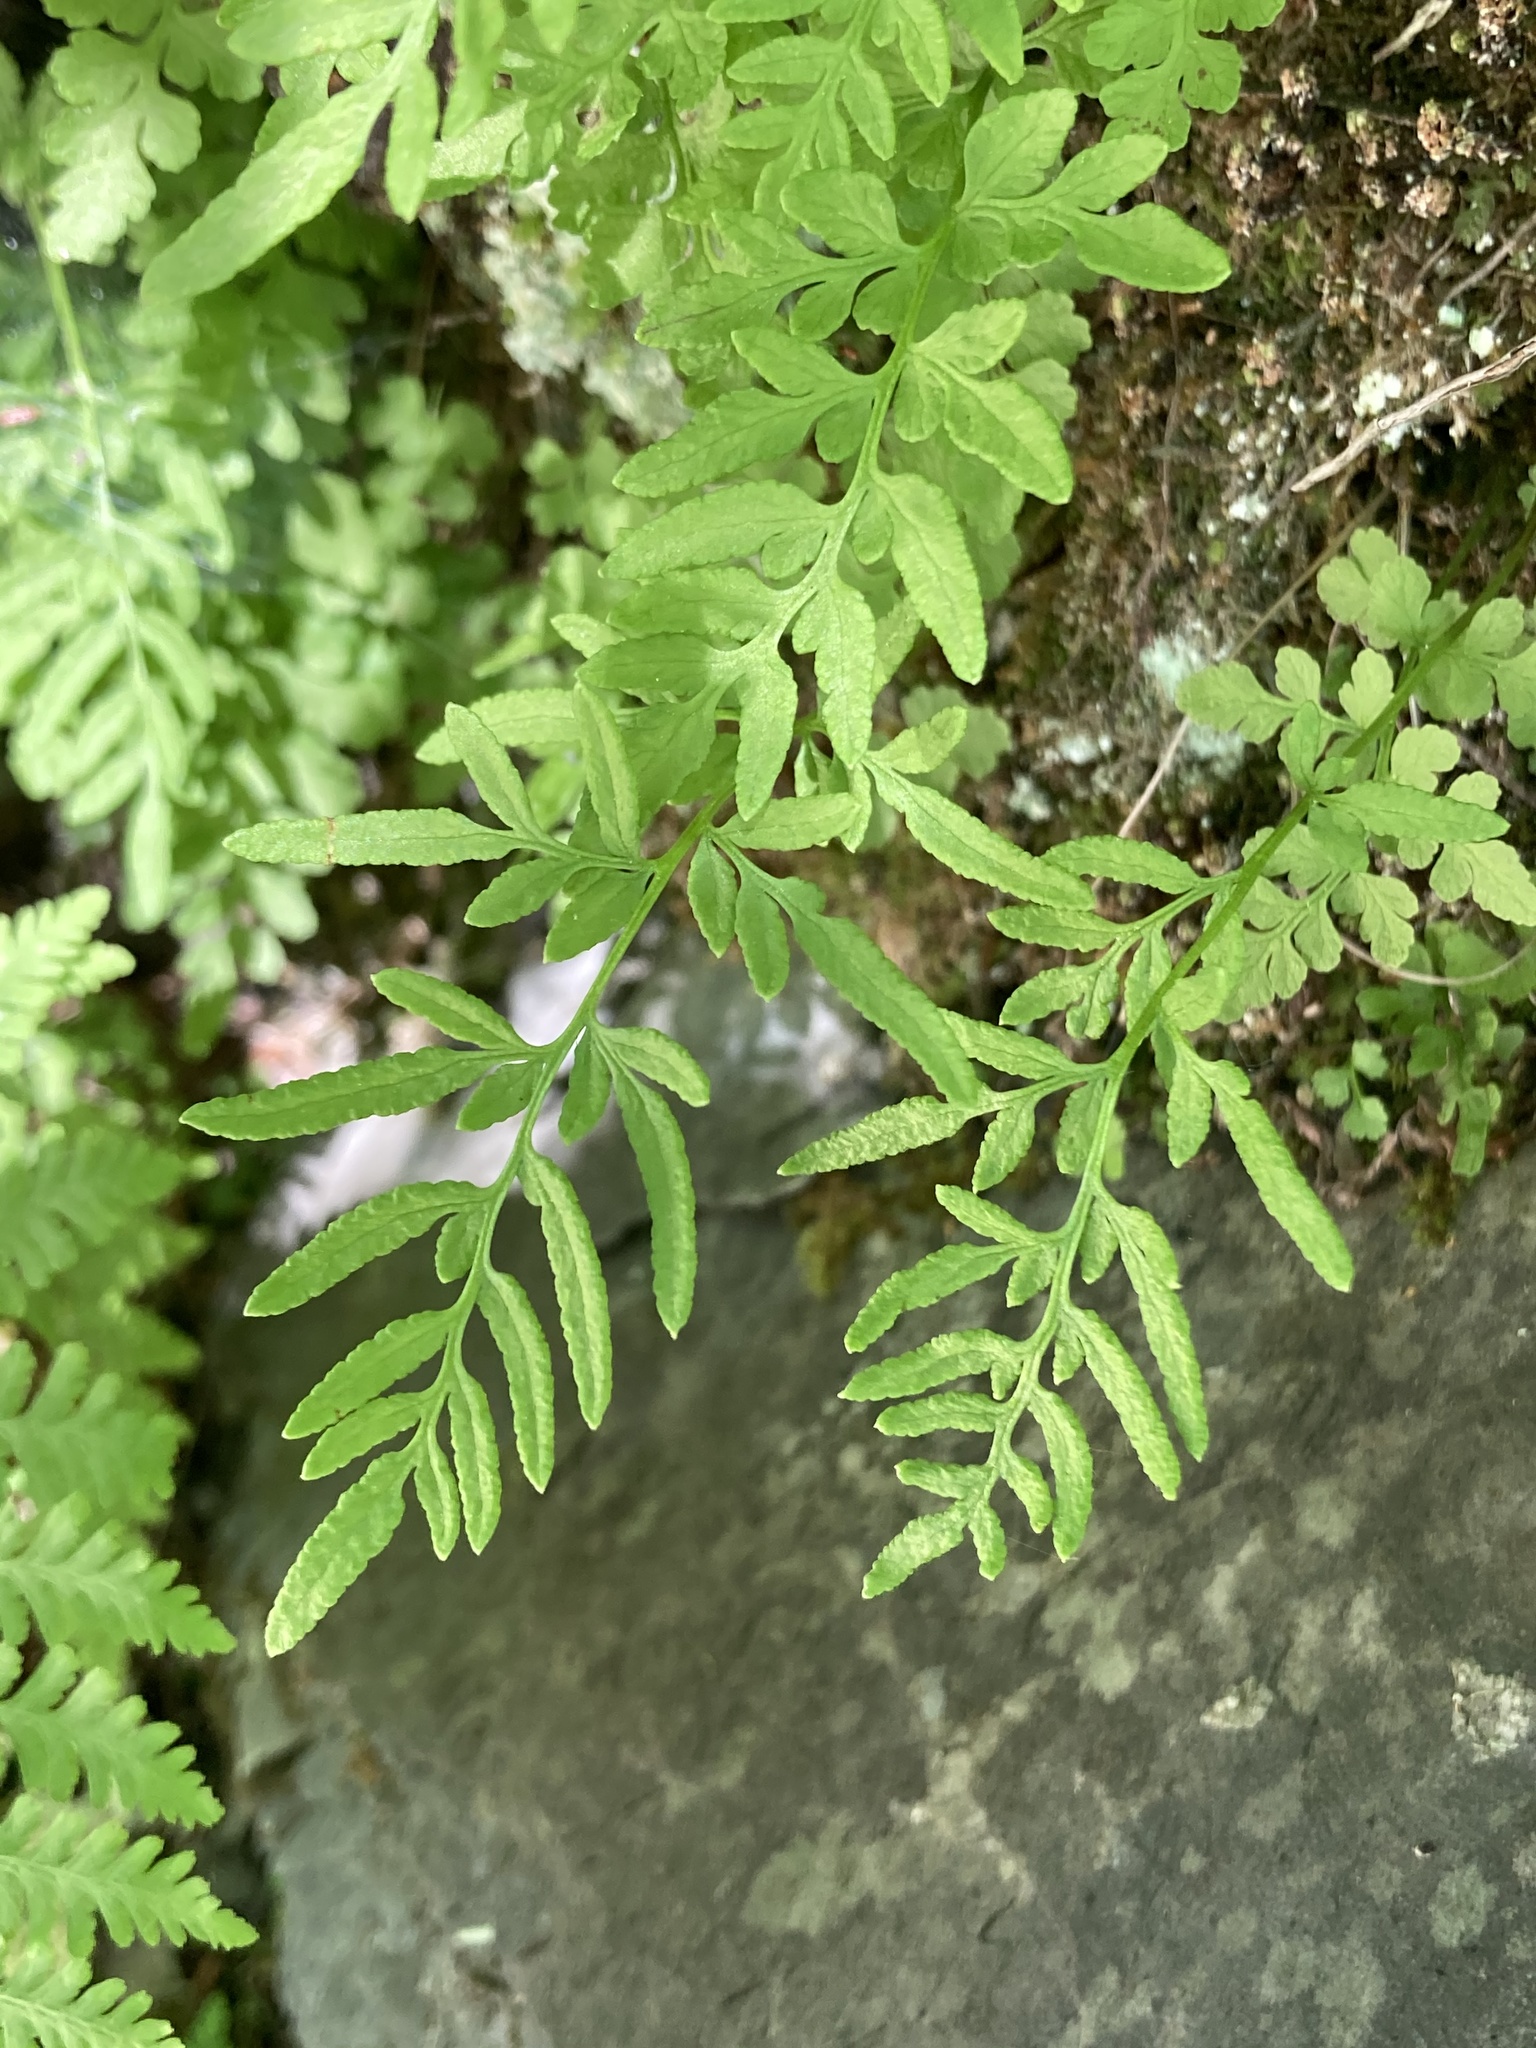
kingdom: Plantae
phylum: Tracheophyta
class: Polypodiopsida
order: Polypodiales
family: Pteridaceae
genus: Cryptogramma
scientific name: Cryptogramma stelleri
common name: Cliff-brake
